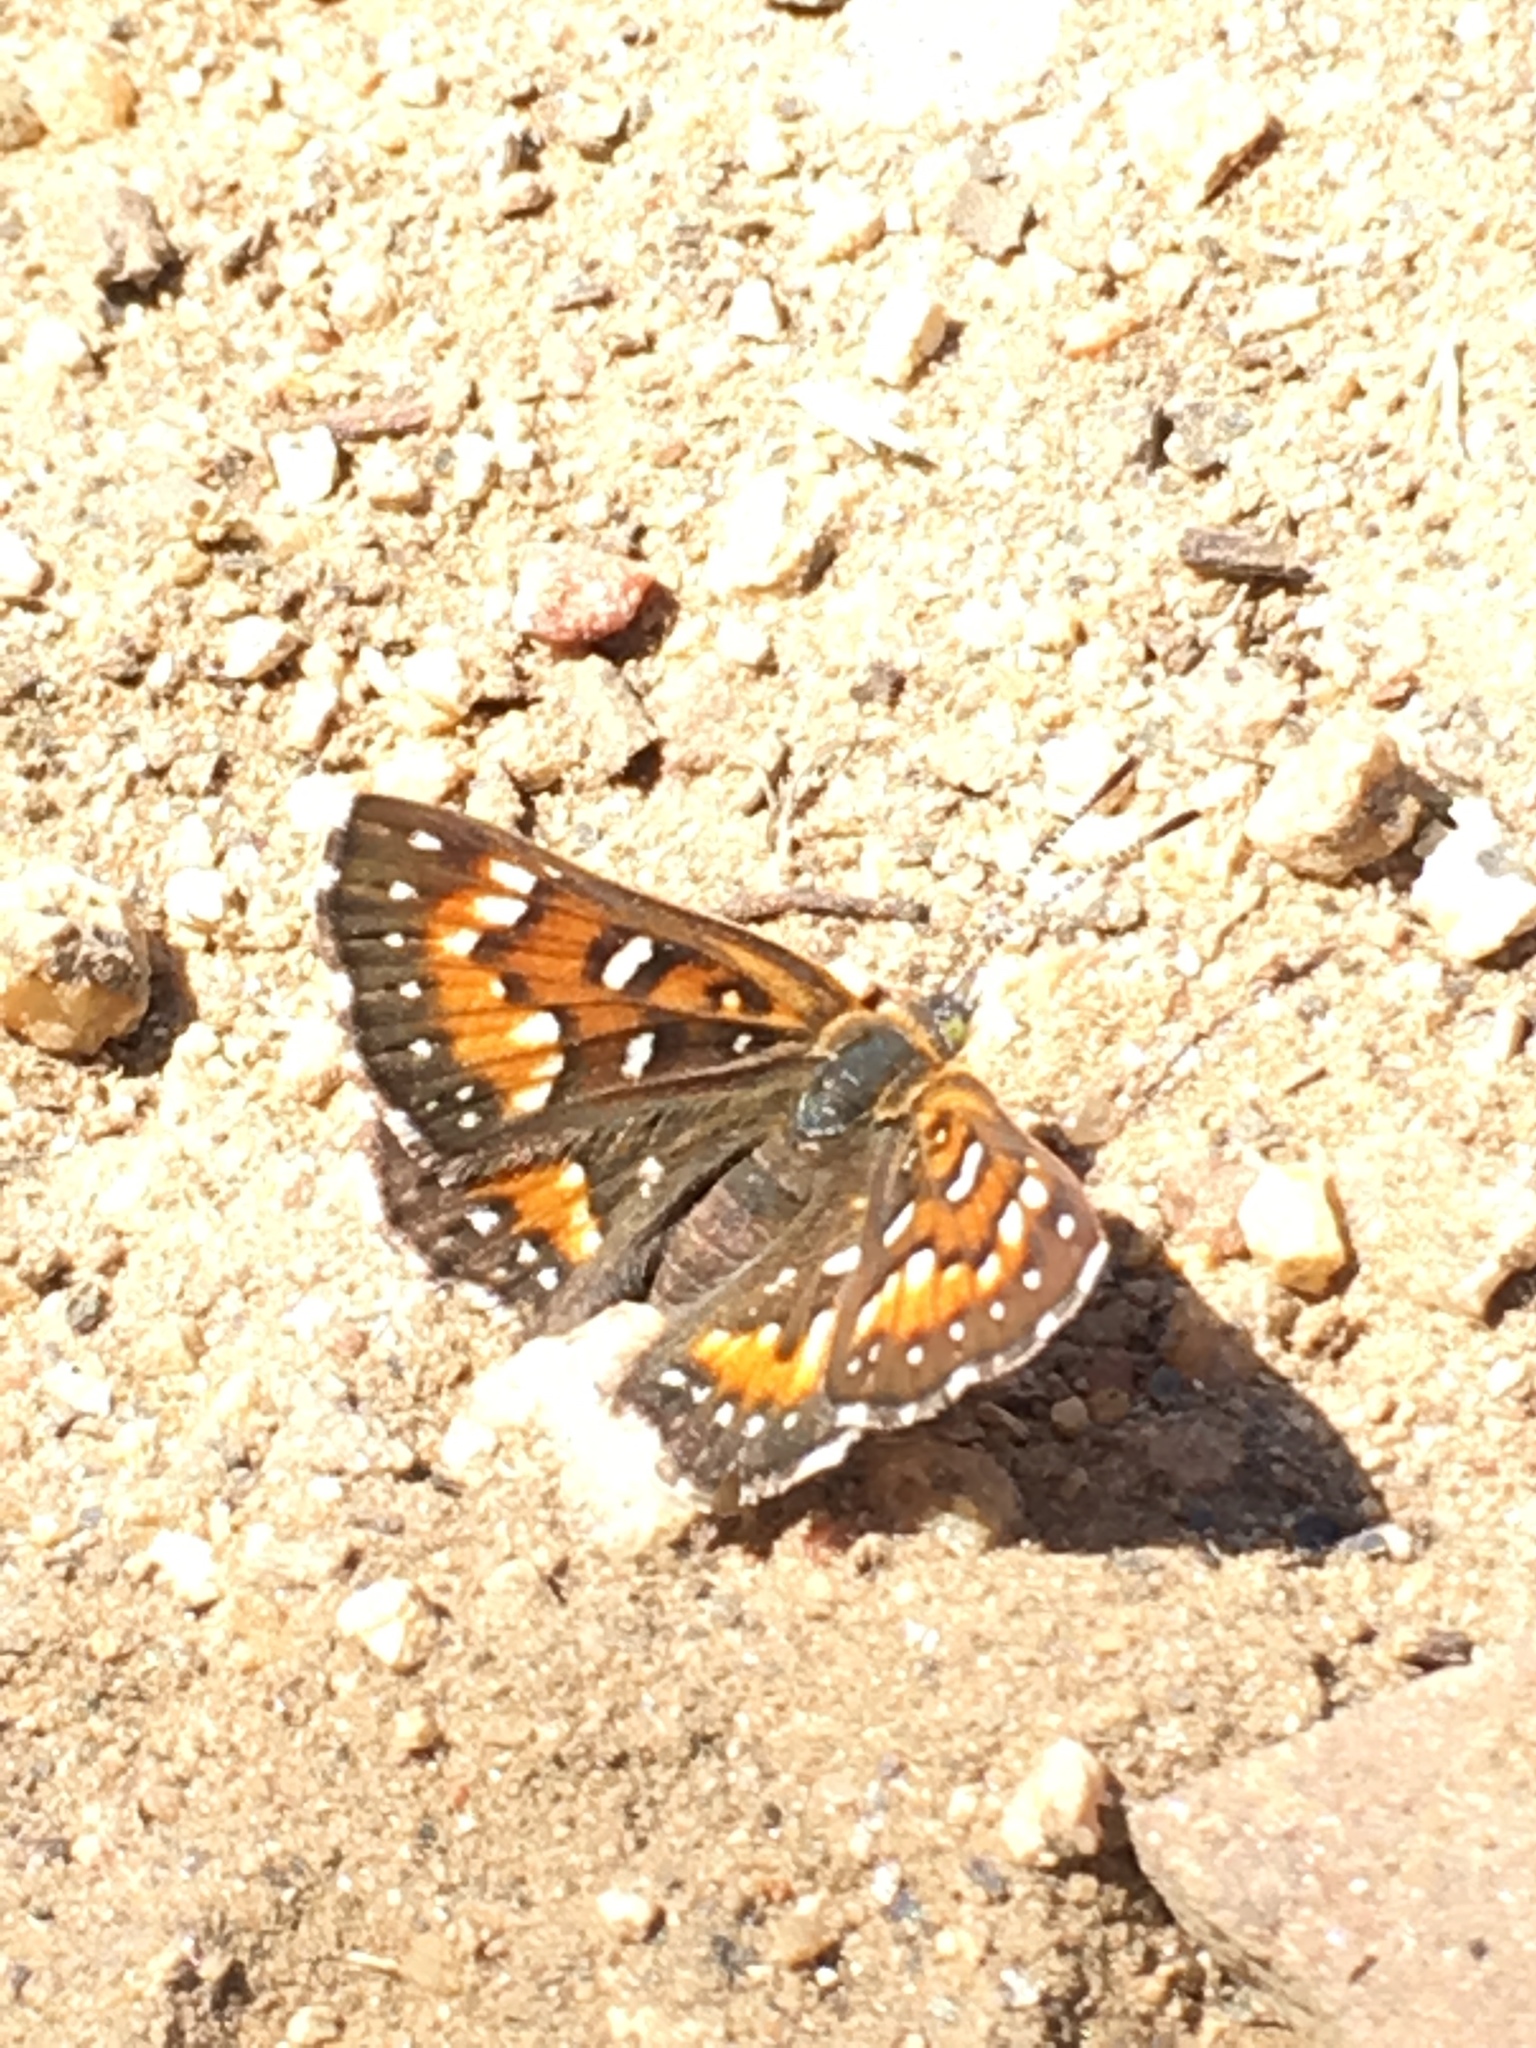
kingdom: Animalia
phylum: Arthropoda
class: Insecta
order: Lepidoptera
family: Riodinidae
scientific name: Riodinidae
